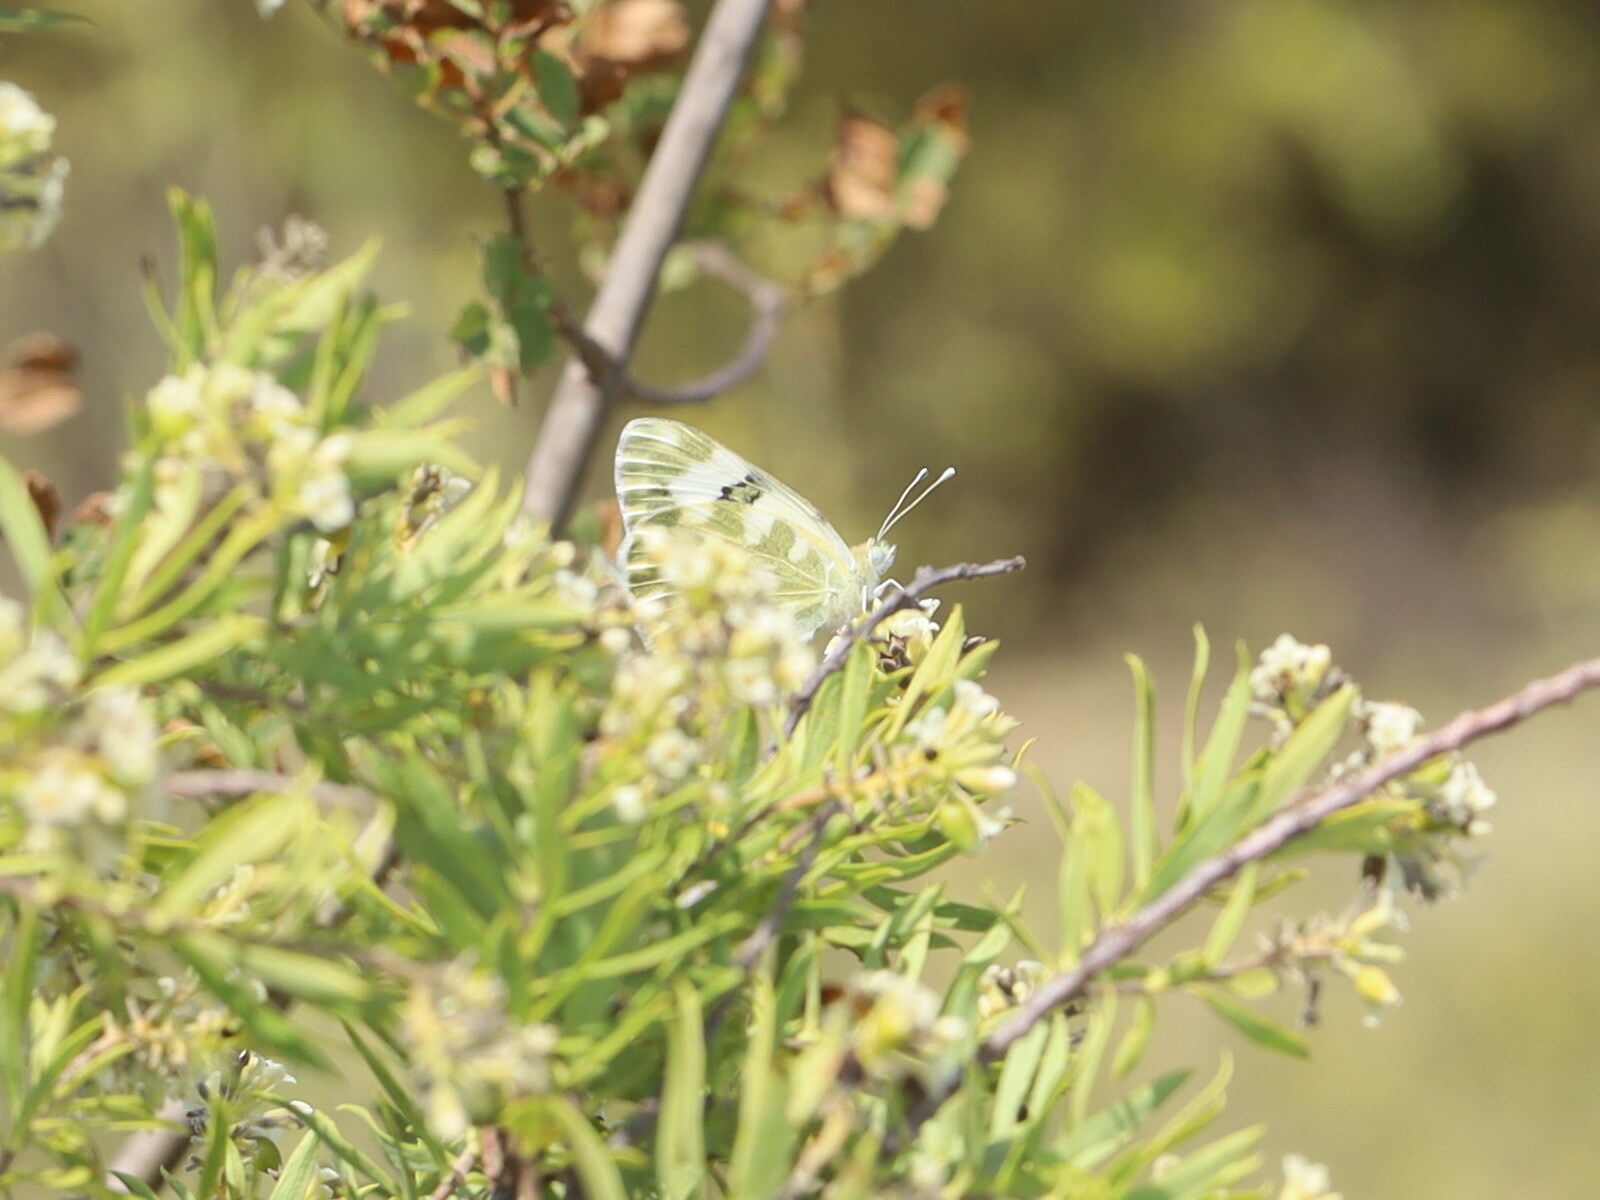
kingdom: Animalia
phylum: Arthropoda
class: Insecta
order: Lepidoptera
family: Pieridae
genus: Pontia
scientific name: Pontia daplidice
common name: Bath white
